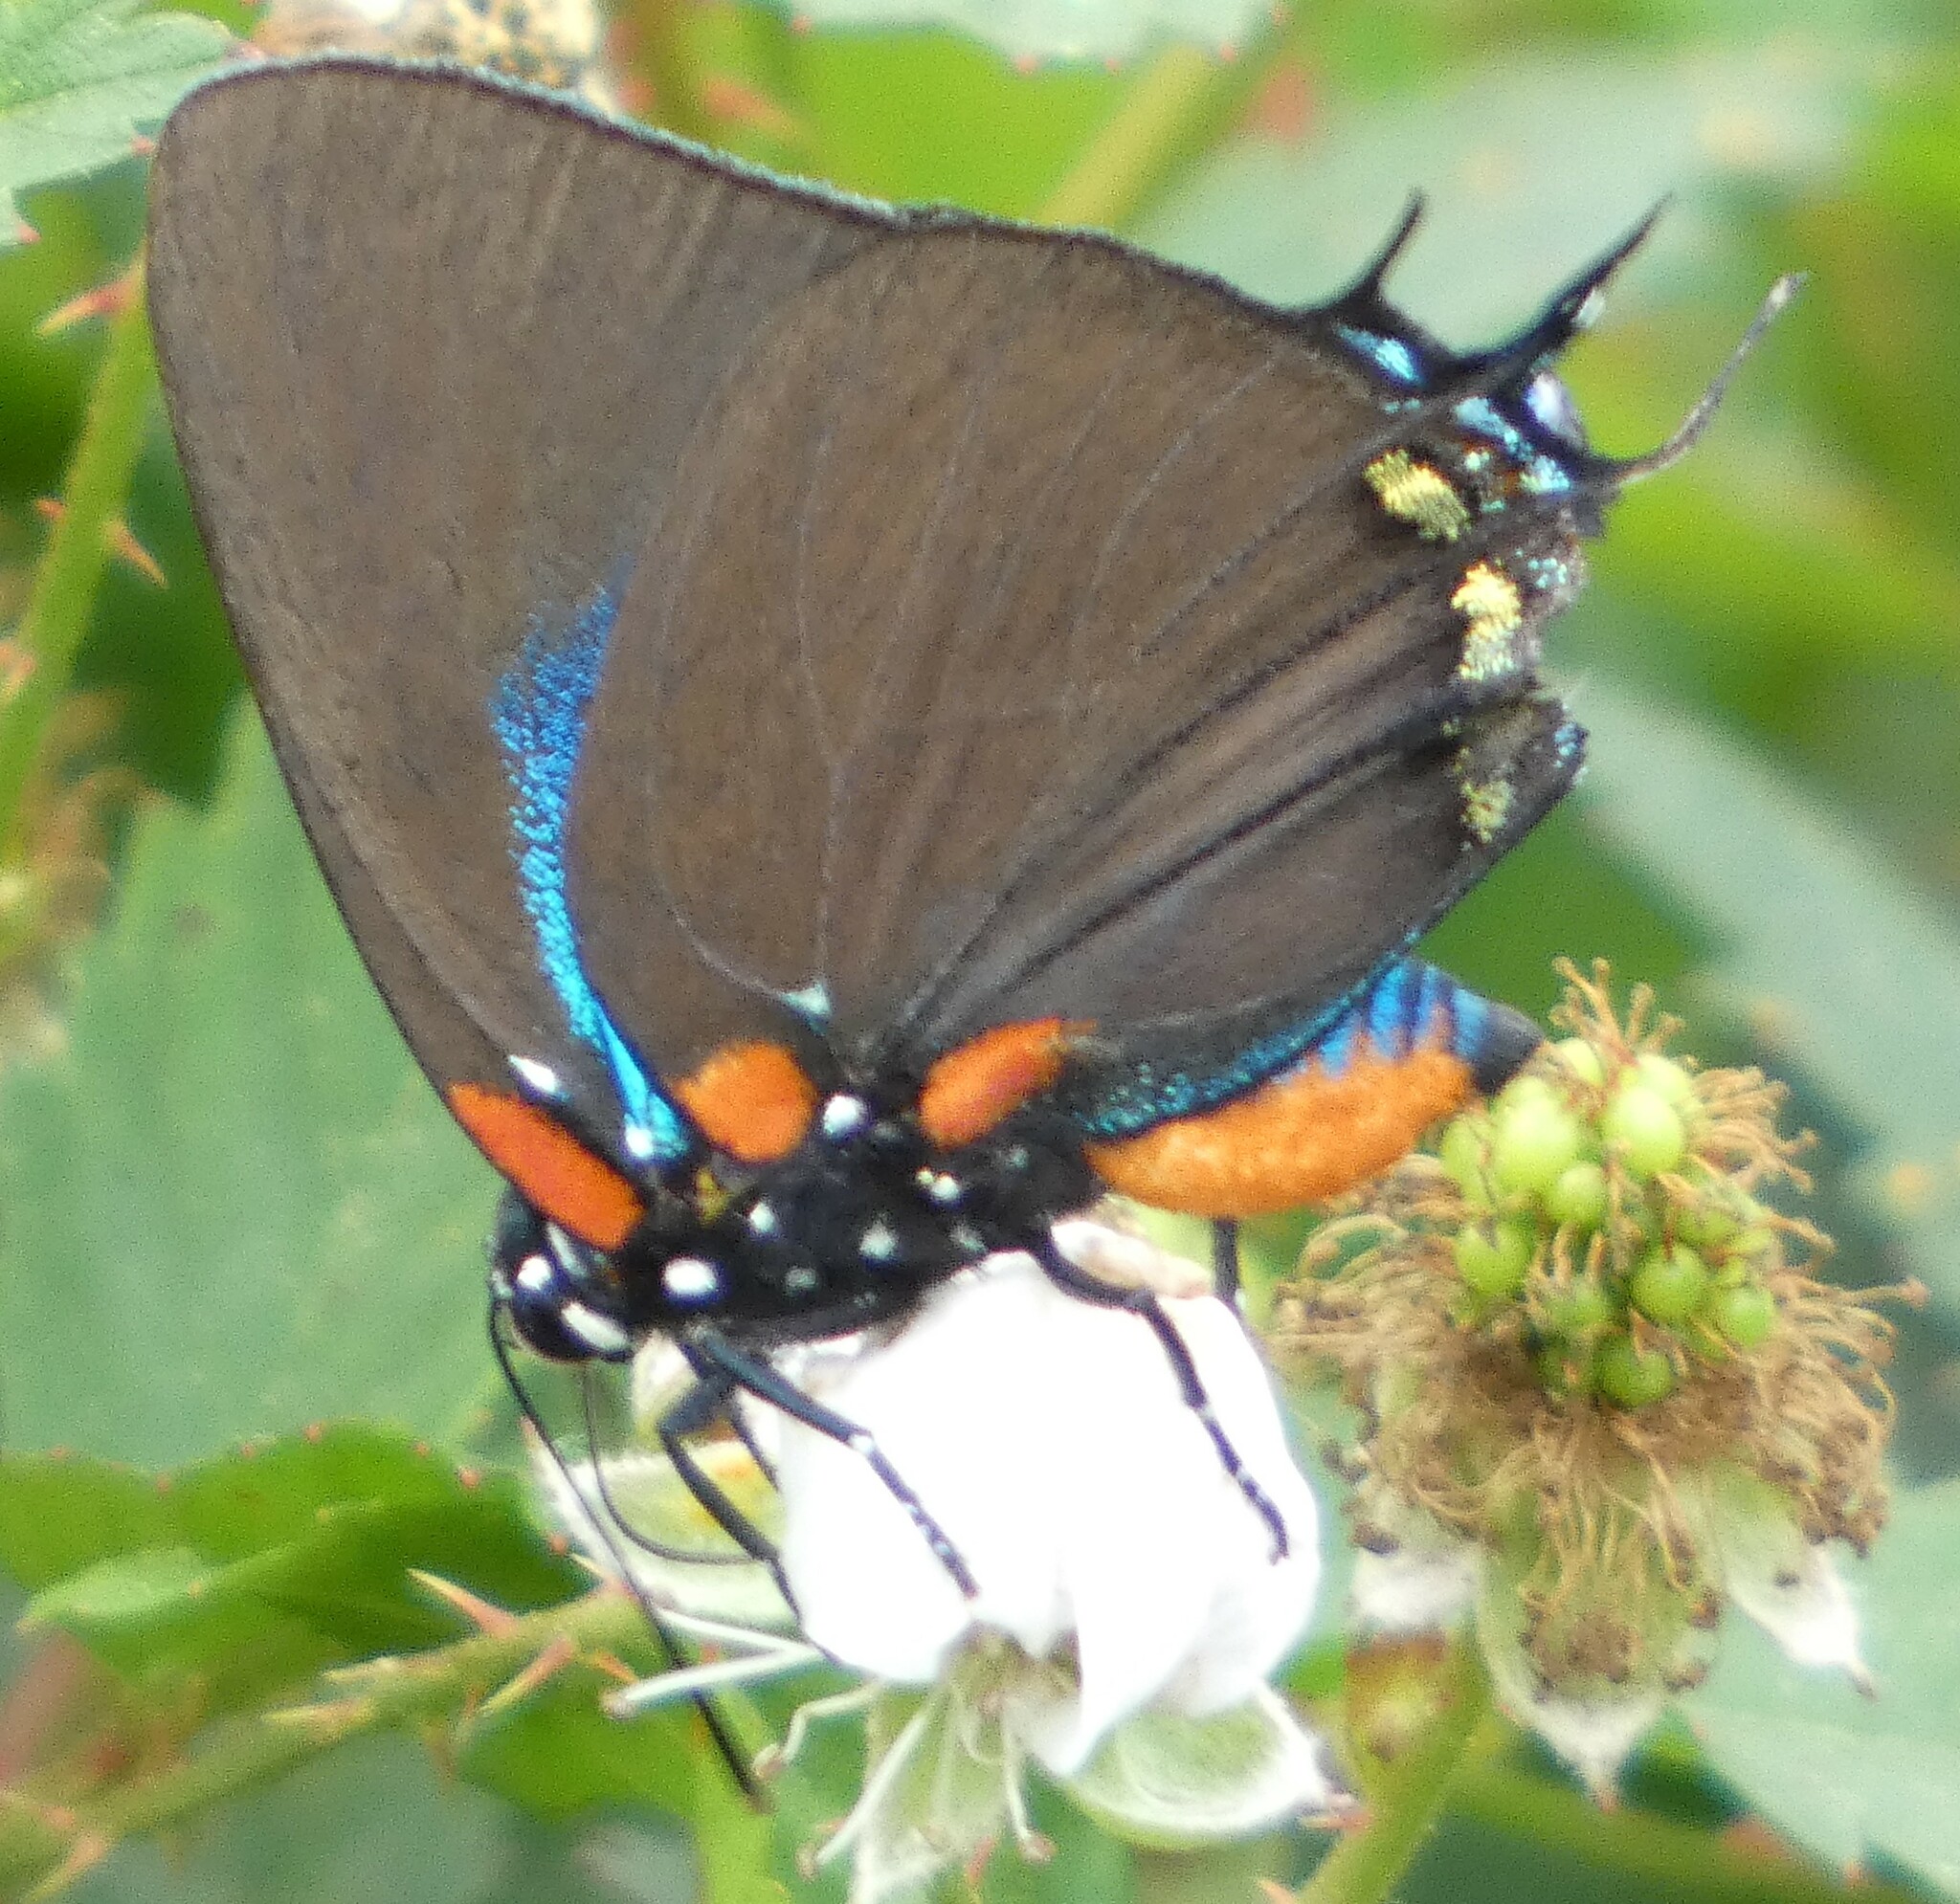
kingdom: Animalia
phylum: Arthropoda
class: Insecta
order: Lepidoptera
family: Lycaenidae
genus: Atlides
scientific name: Atlides halesus
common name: Great purple hairstreak
